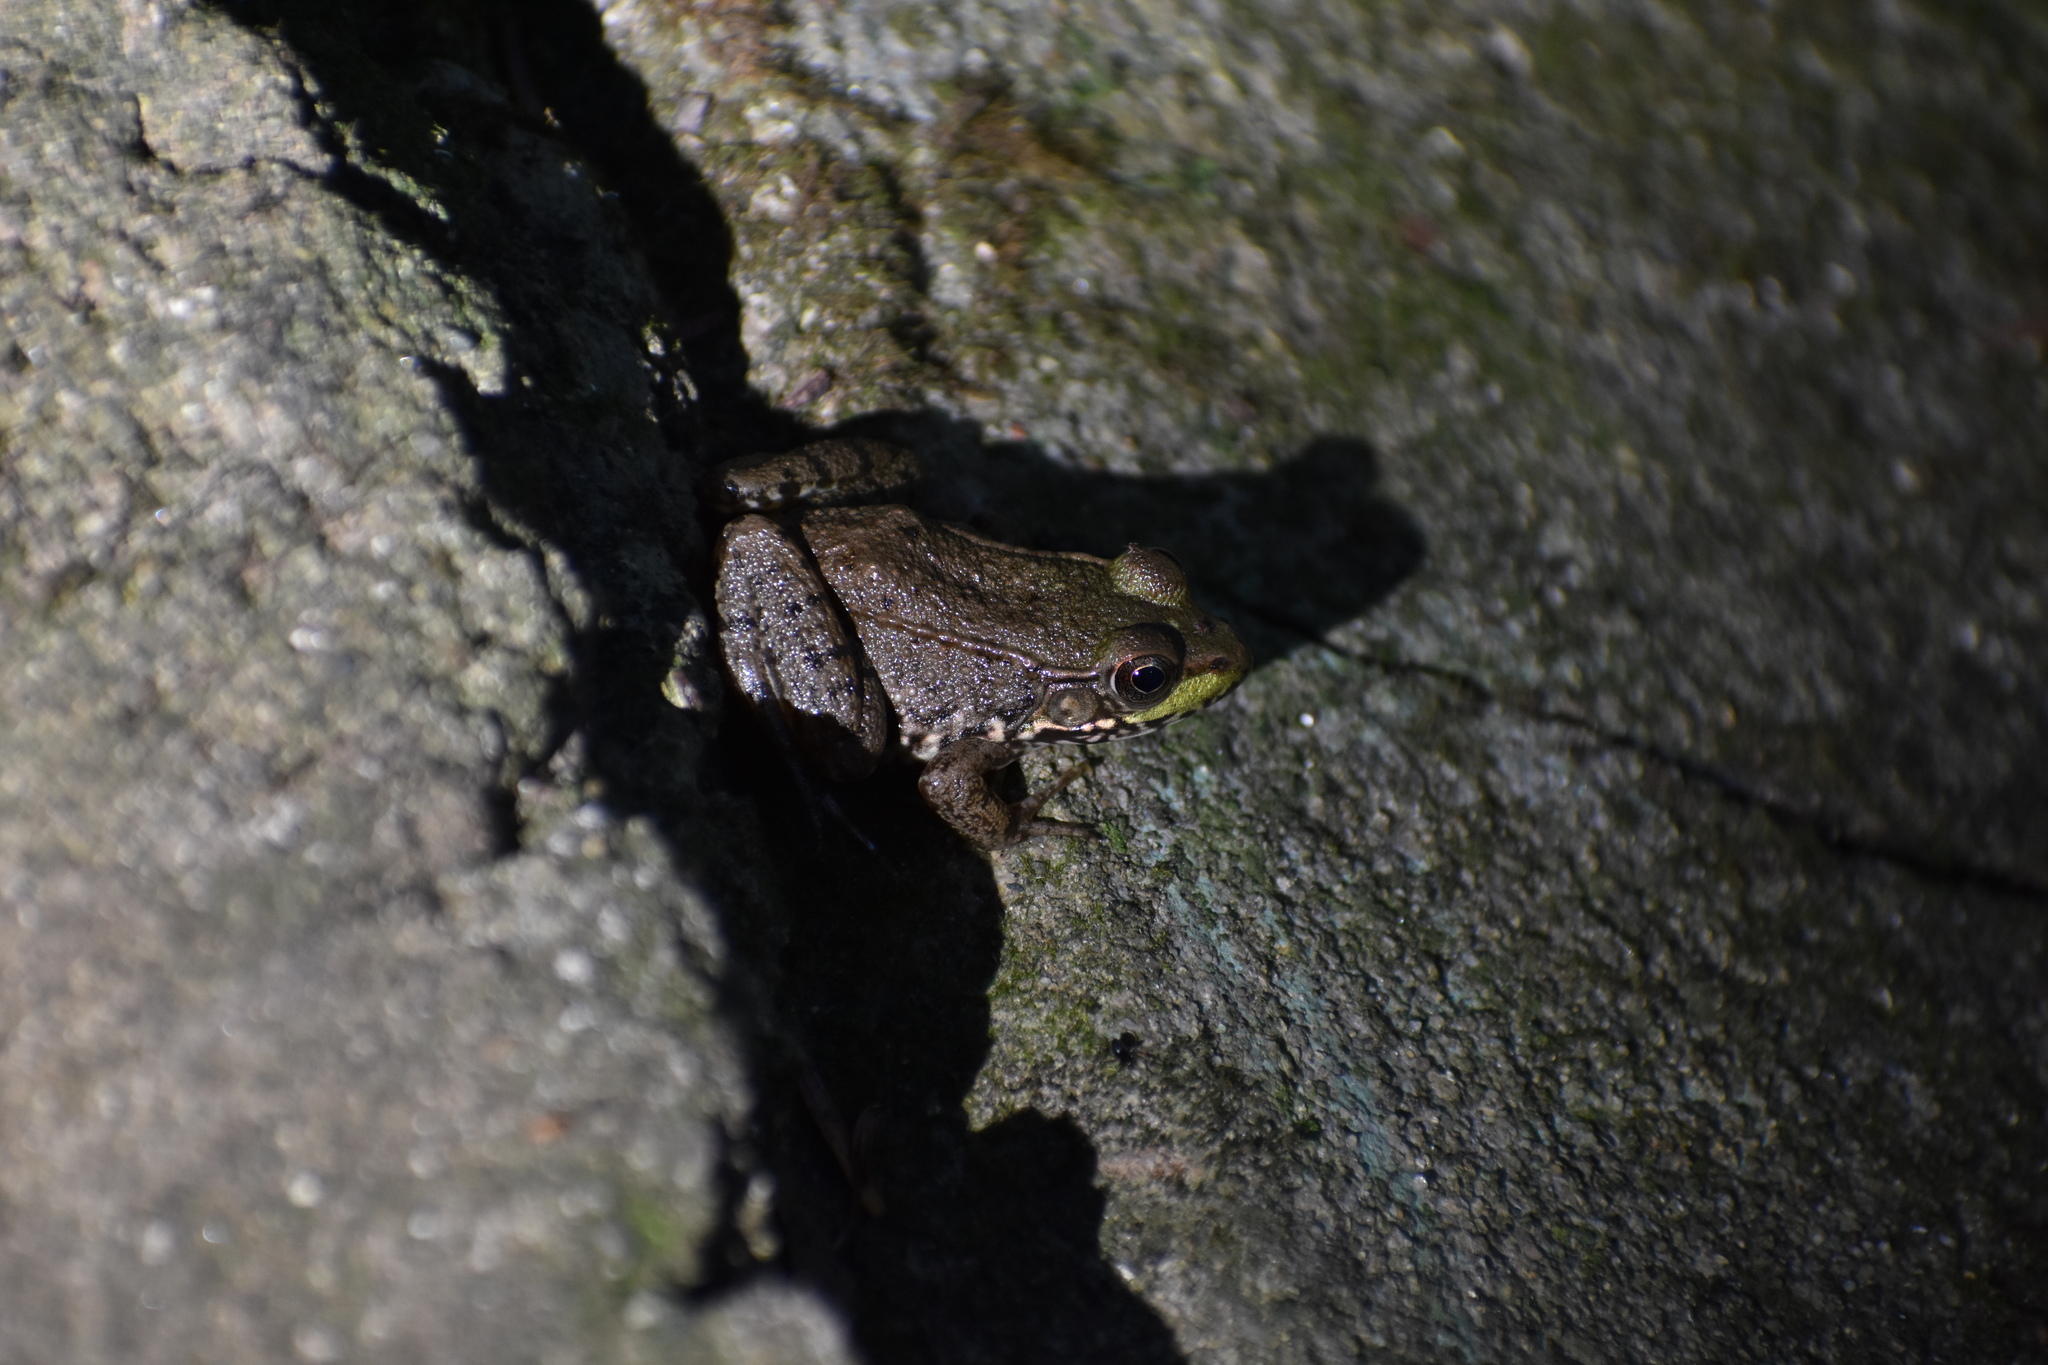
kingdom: Animalia
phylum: Chordata
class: Amphibia
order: Anura
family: Ranidae
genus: Lithobates
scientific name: Lithobates clamitans
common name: Green frog
